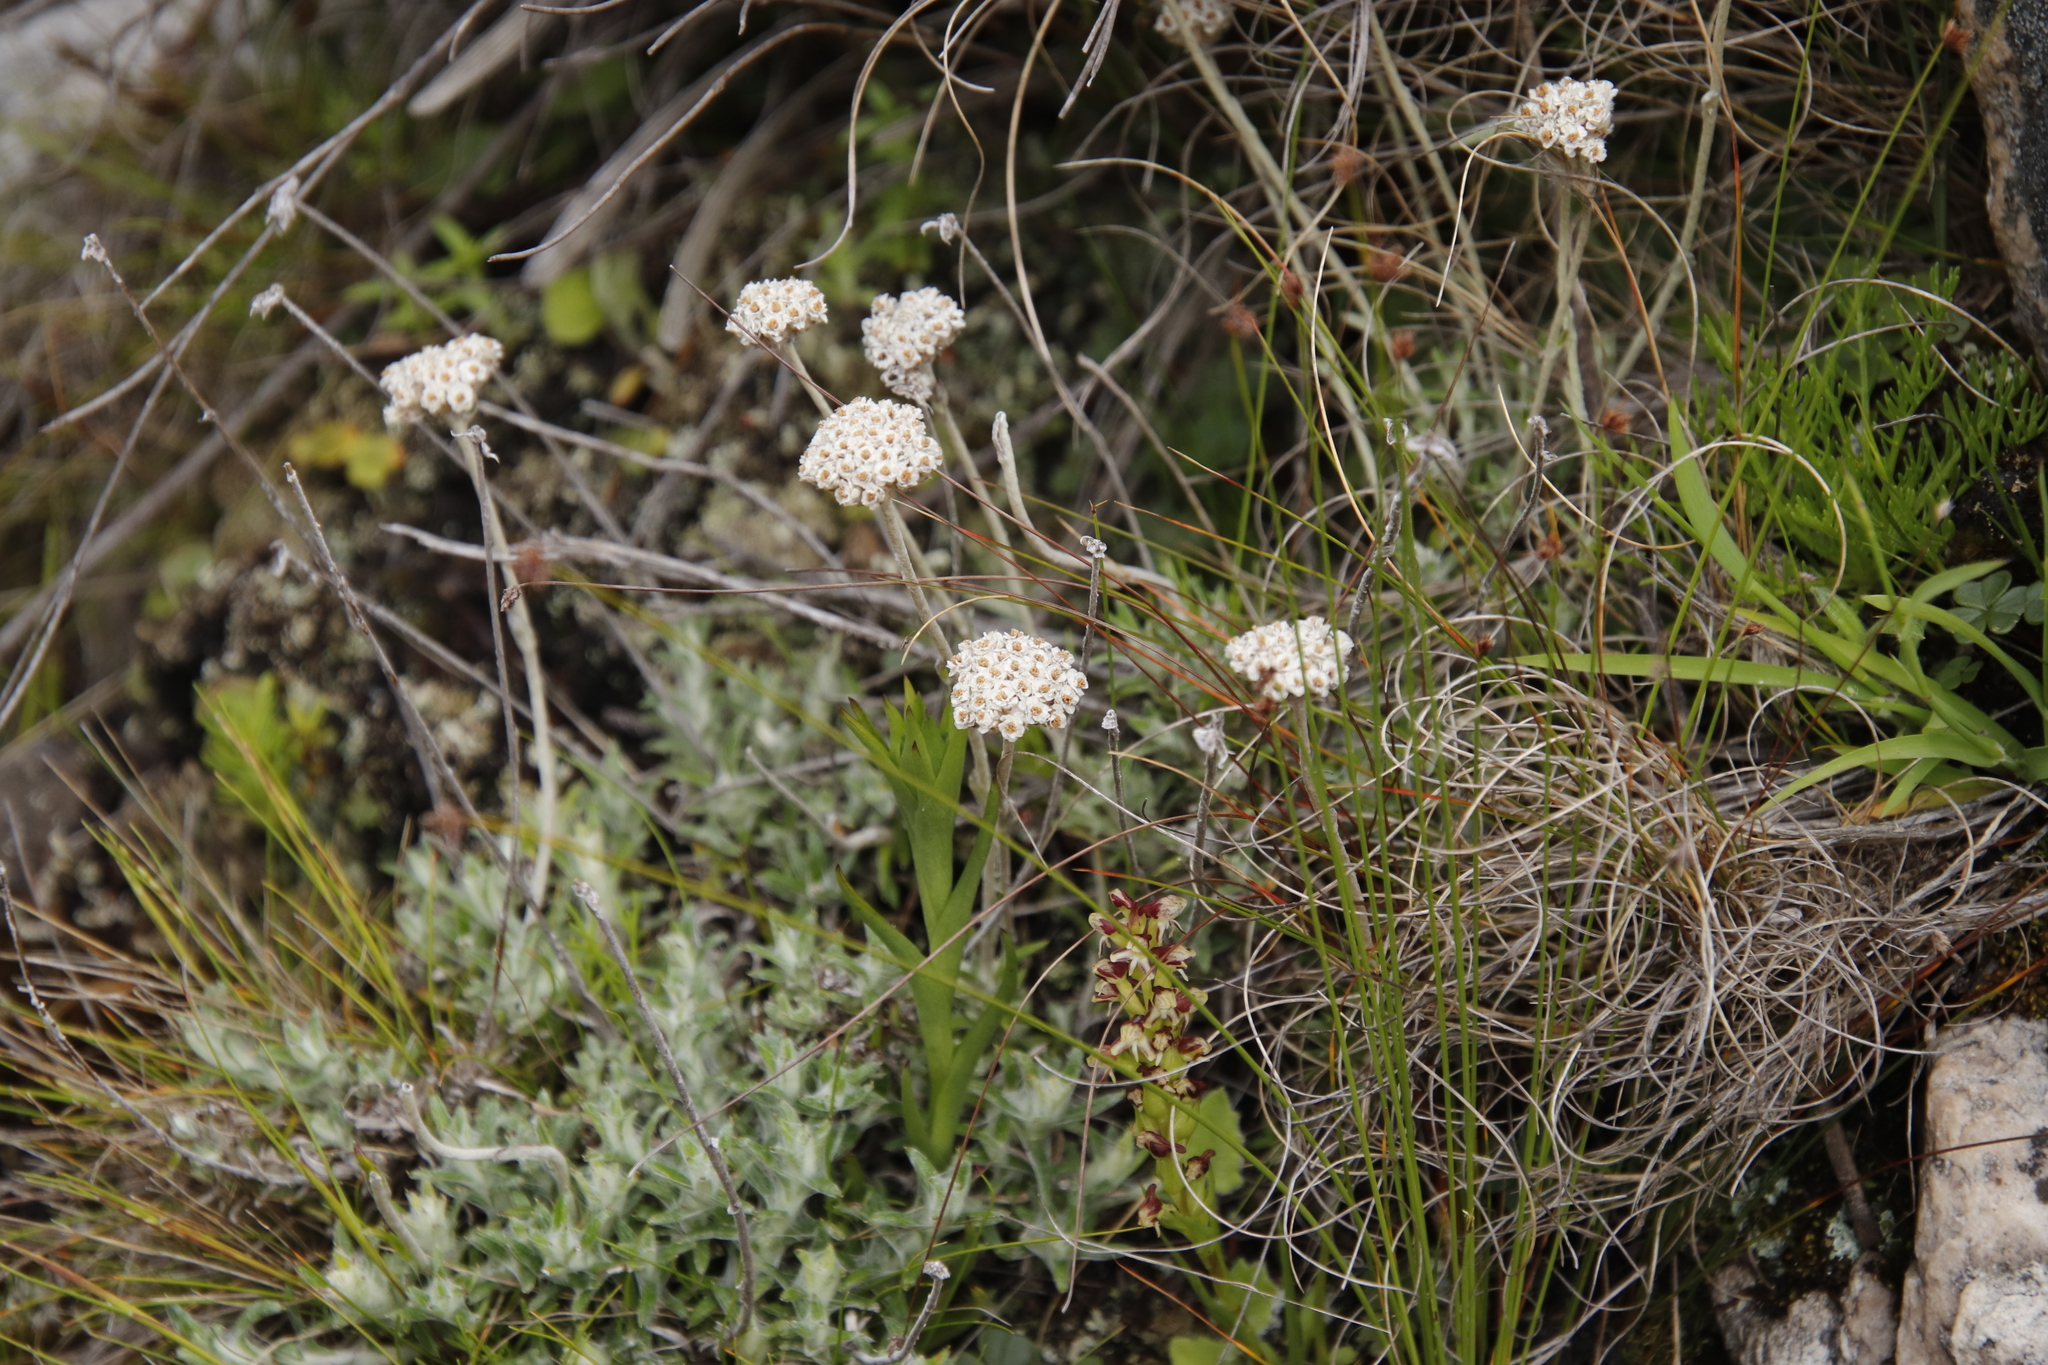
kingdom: Plantae
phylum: Tracheophyta
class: Magnoliopsida
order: Asterales
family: Asteraceae
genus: Anaxeton
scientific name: Anaxeton asperum
